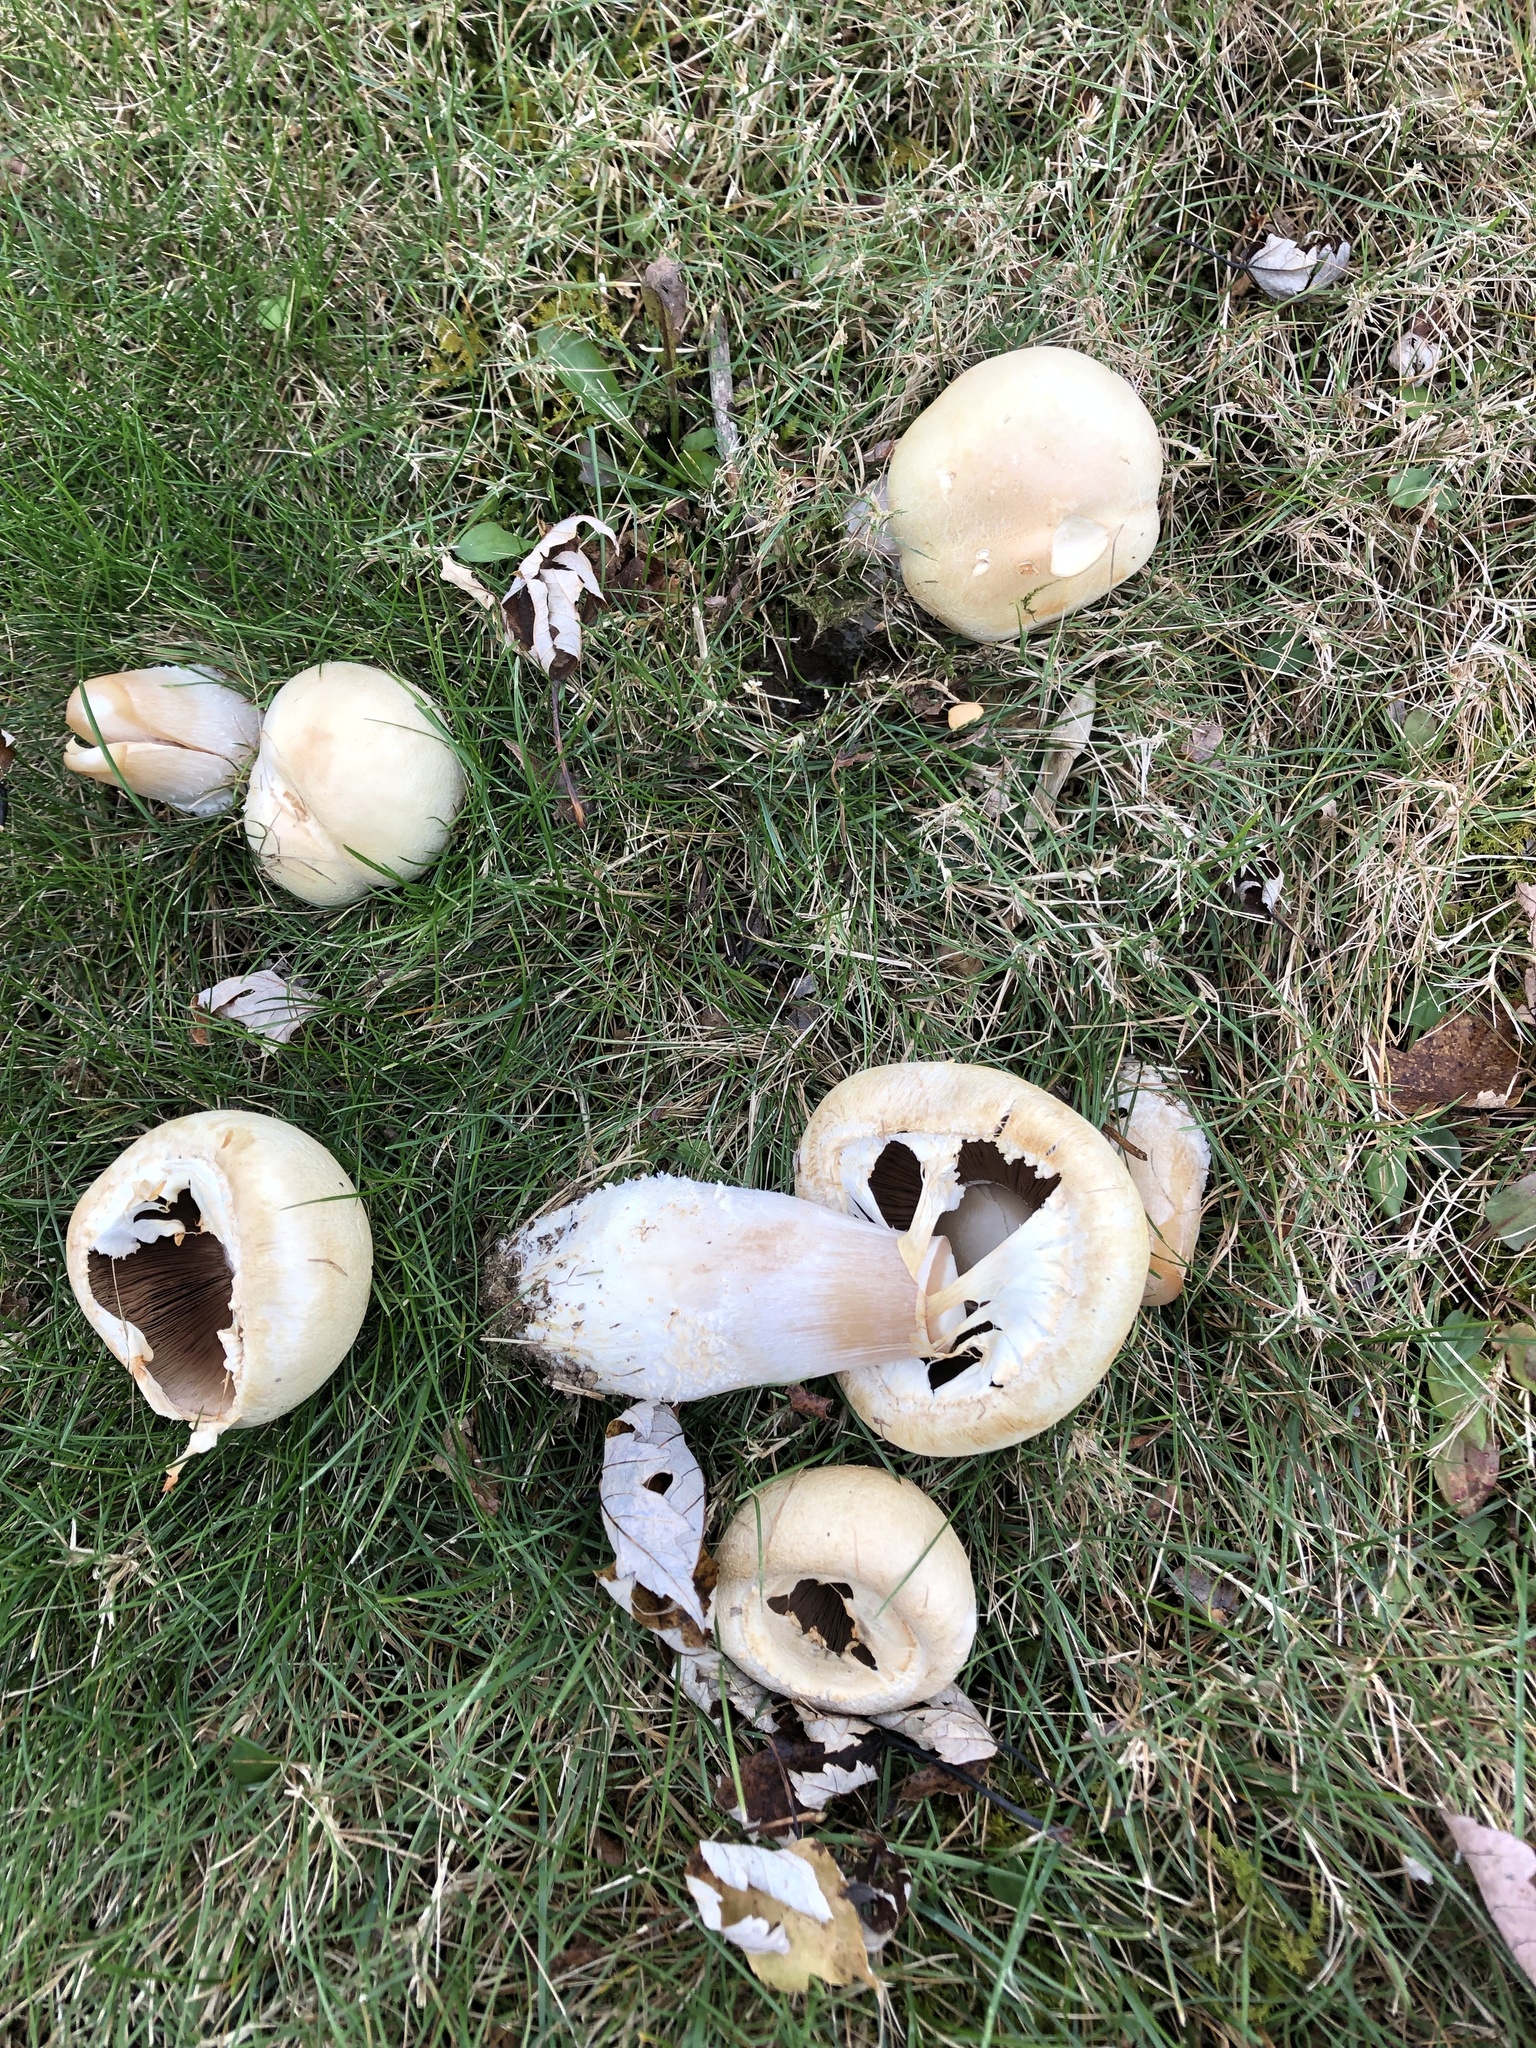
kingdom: Fungi
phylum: Basidiomycota
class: Agaricomycetes
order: Agaricales
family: Agaricaceae
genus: Agaricus
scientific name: Agaricus arvensis
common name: Horse mushroom
